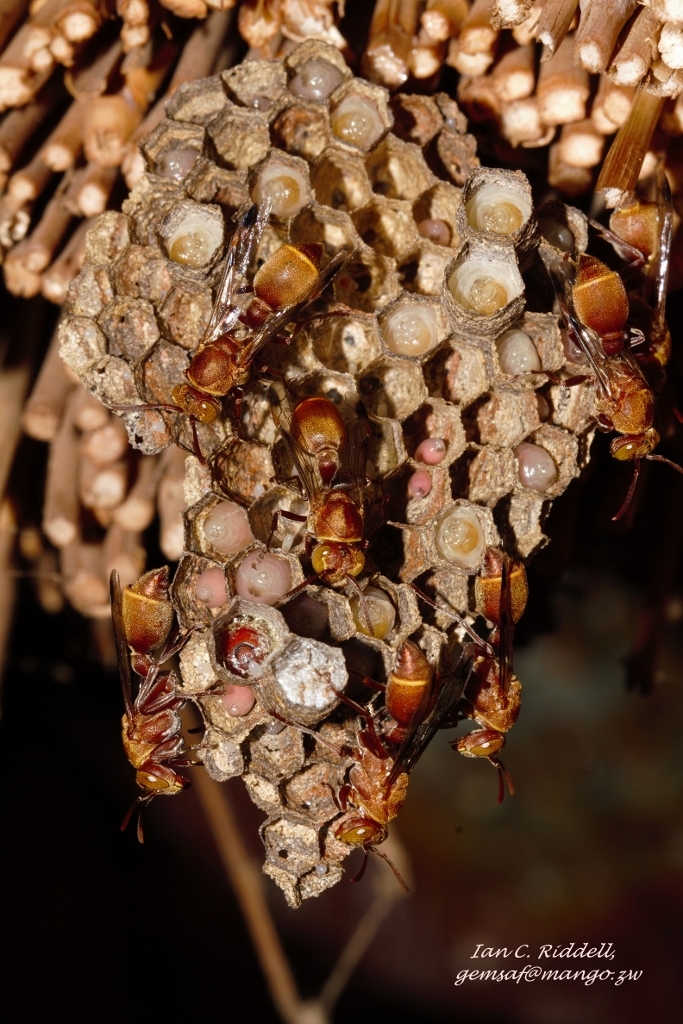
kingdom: Animalia
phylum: Arthropoda
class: Insecta
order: Hymenoptera
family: Vespidae
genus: Ropalidia
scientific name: Ropalidia distigma
